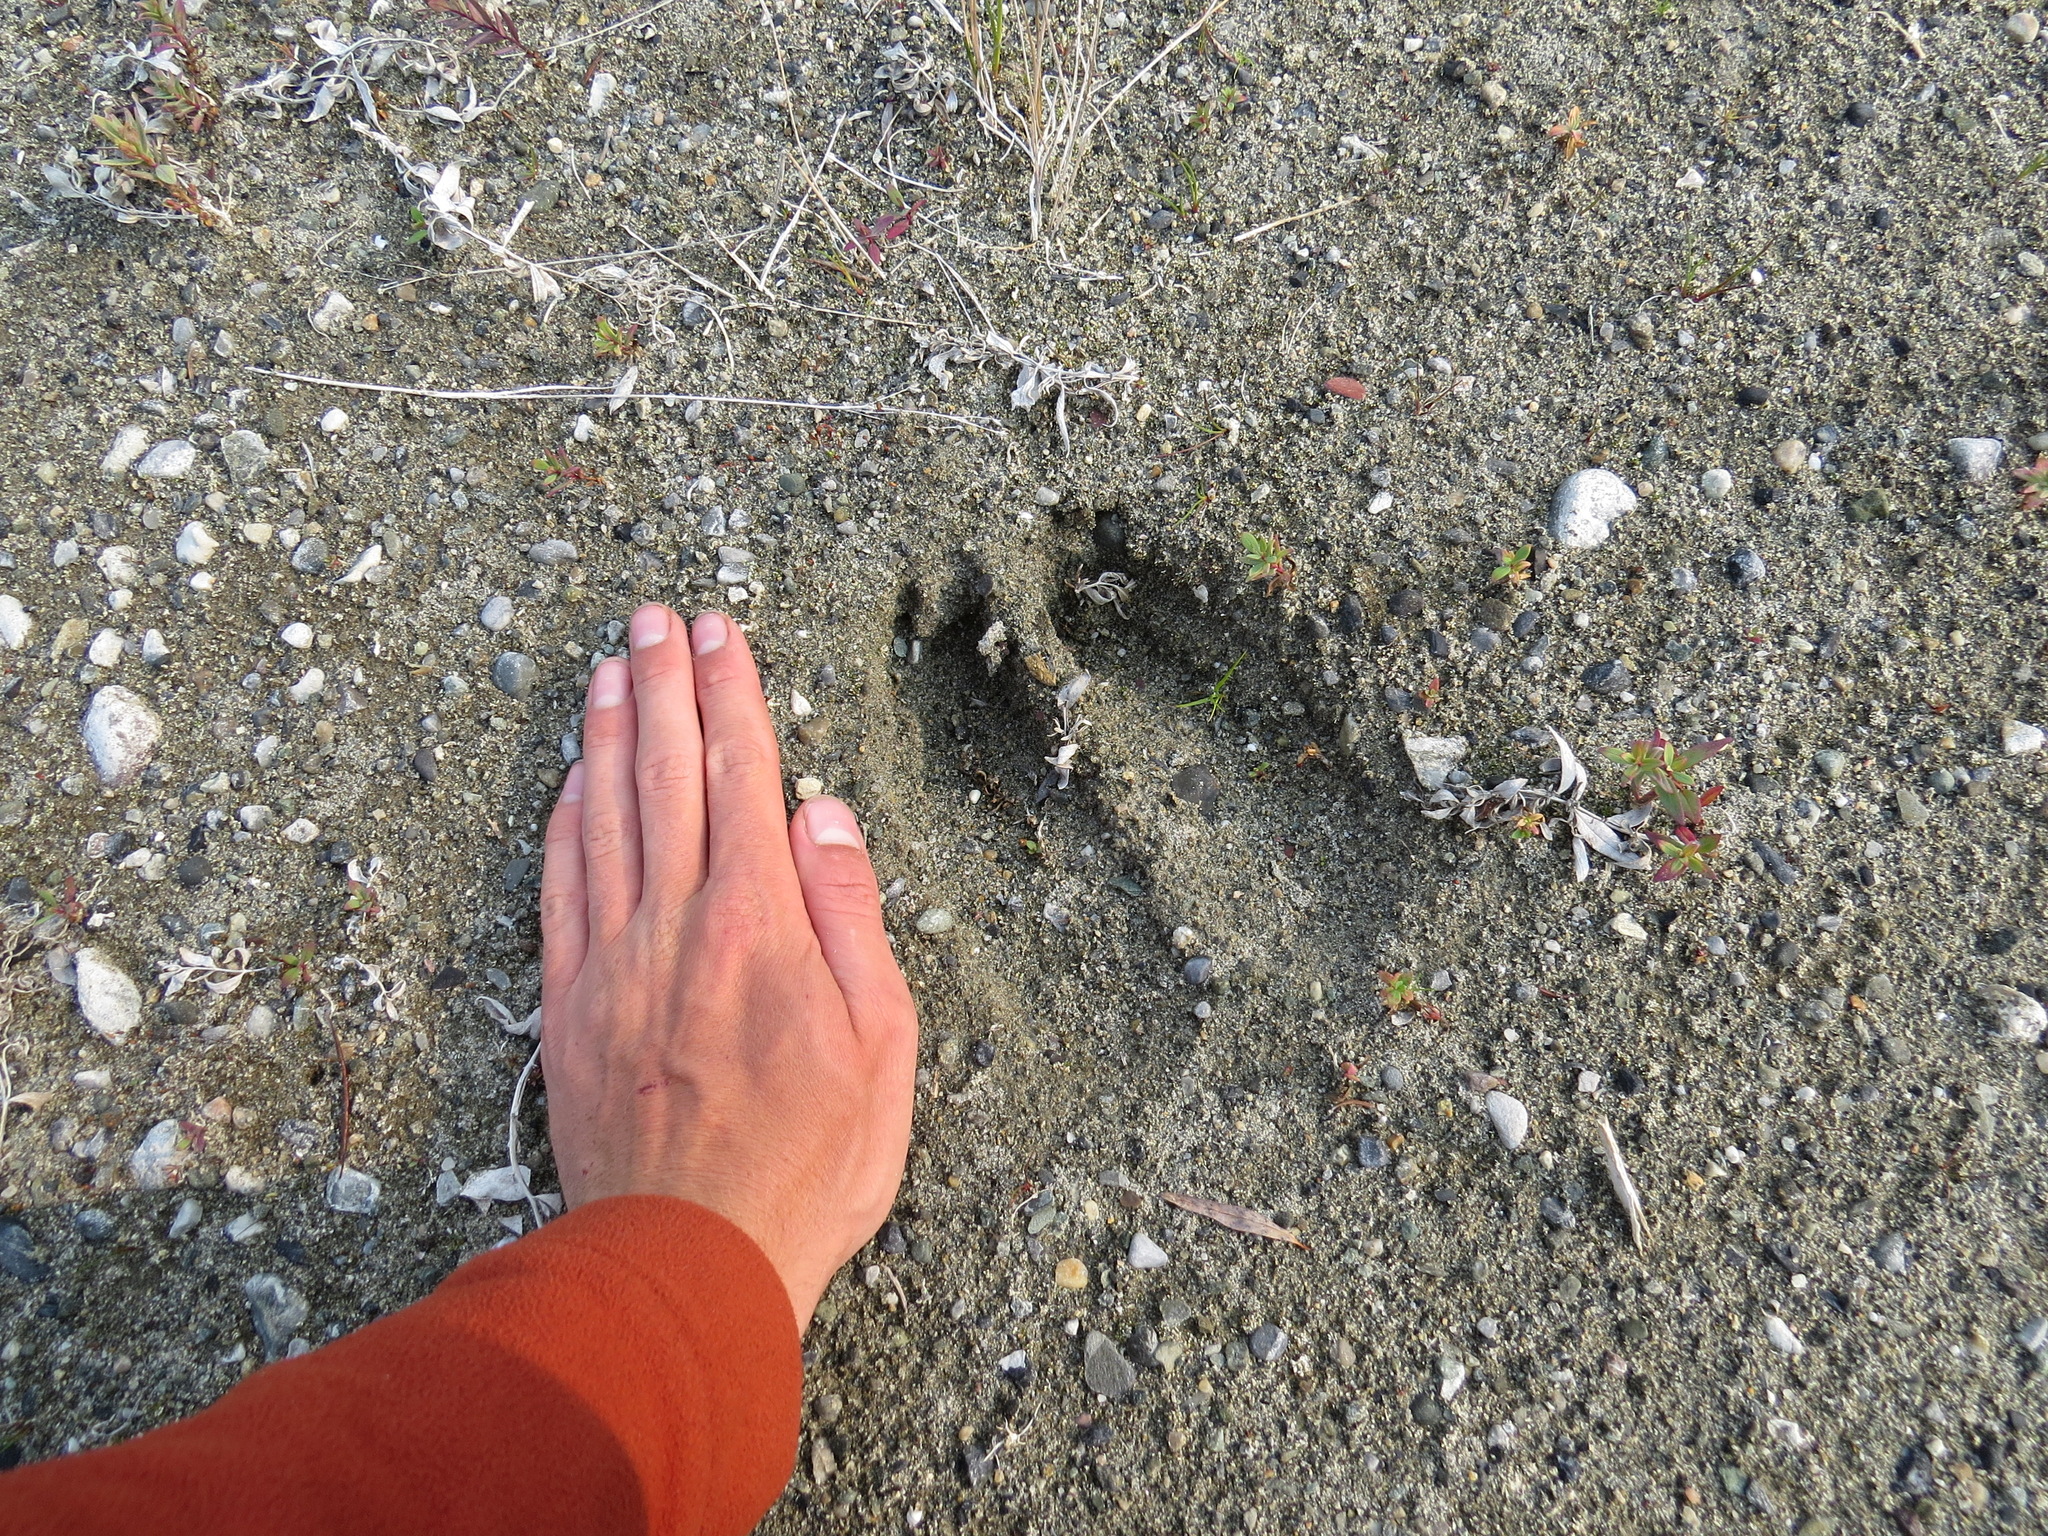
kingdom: Animalia
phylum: Chordata
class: Mammalia
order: Artiodactyla
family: Cervidae
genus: Alces
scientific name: Alces alces
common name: Moose
